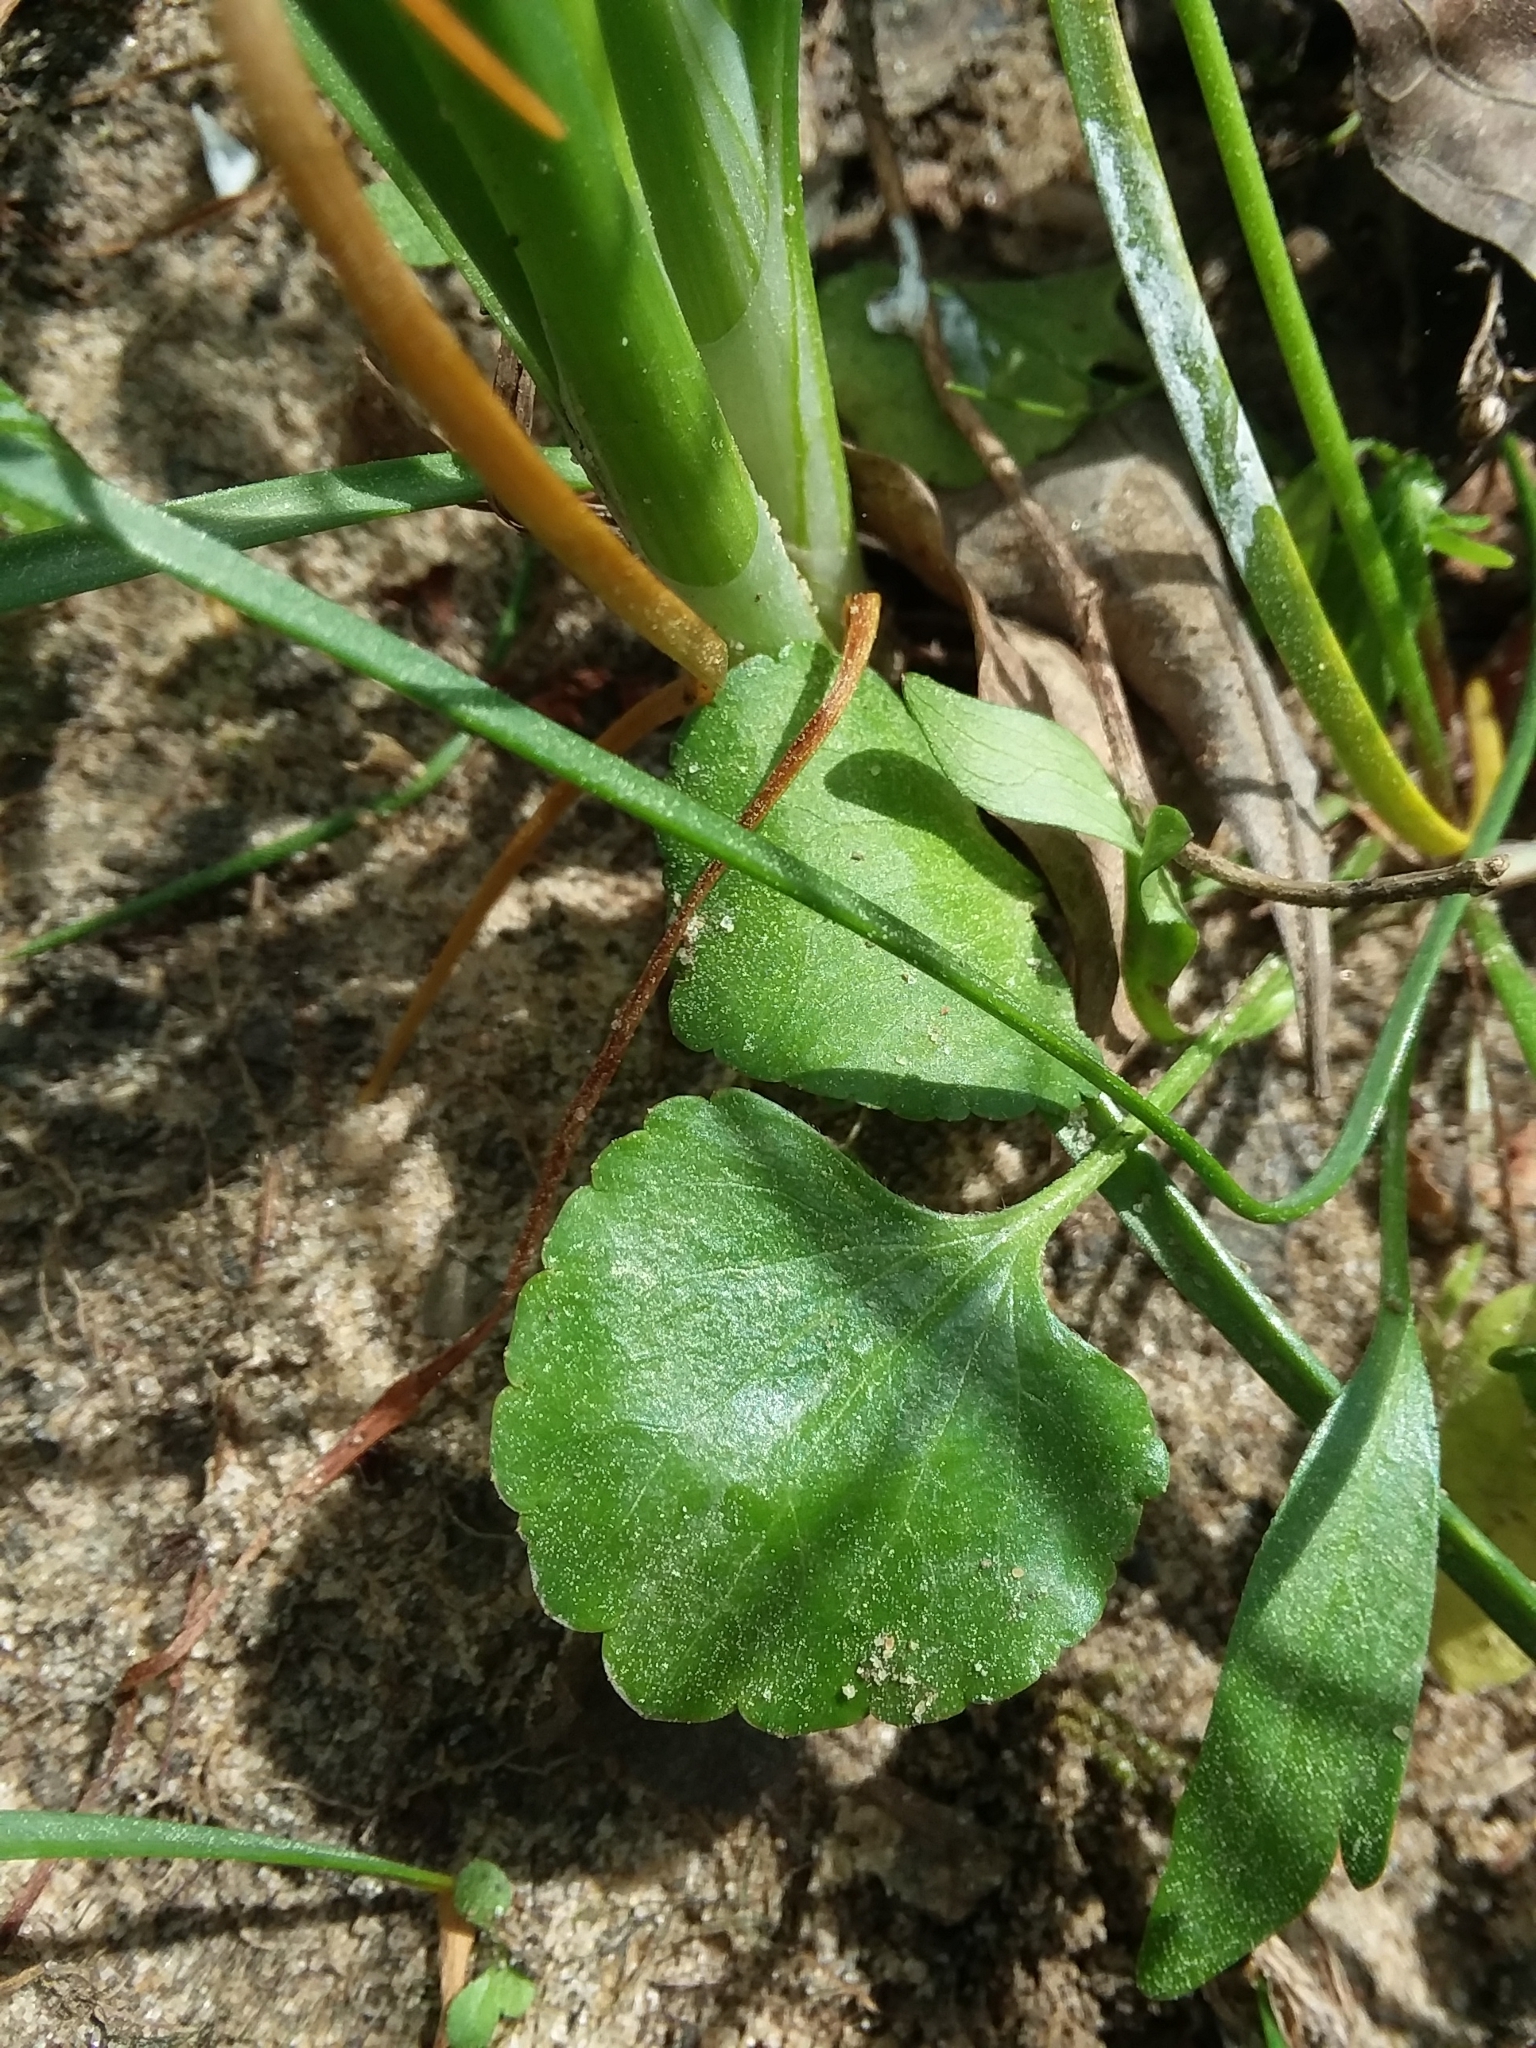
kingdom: Plantae
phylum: Tracheophyta
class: Magnoliopsida
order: Ranunculales
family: Ranunculaceae
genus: Ranunculus
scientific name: Ranunculus abortivus
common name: Early wood buttercup
